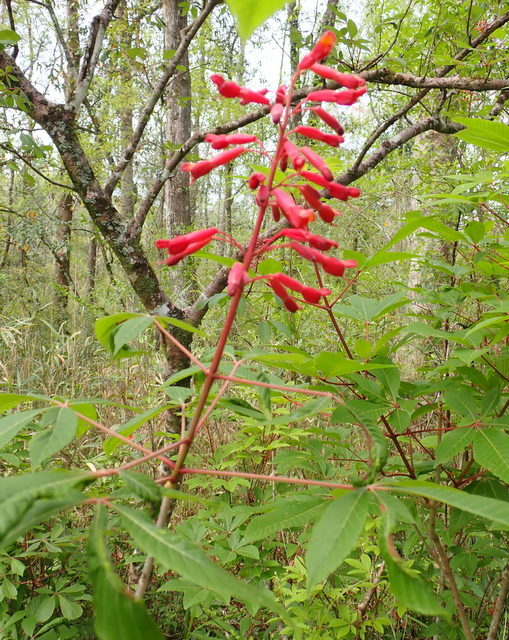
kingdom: Plantae
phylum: Tracheophyta
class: Magnoliopsida
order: Sapindales
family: Sapindaceae
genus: Aesculus
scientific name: Aesculus pavia
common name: Red buckeye
